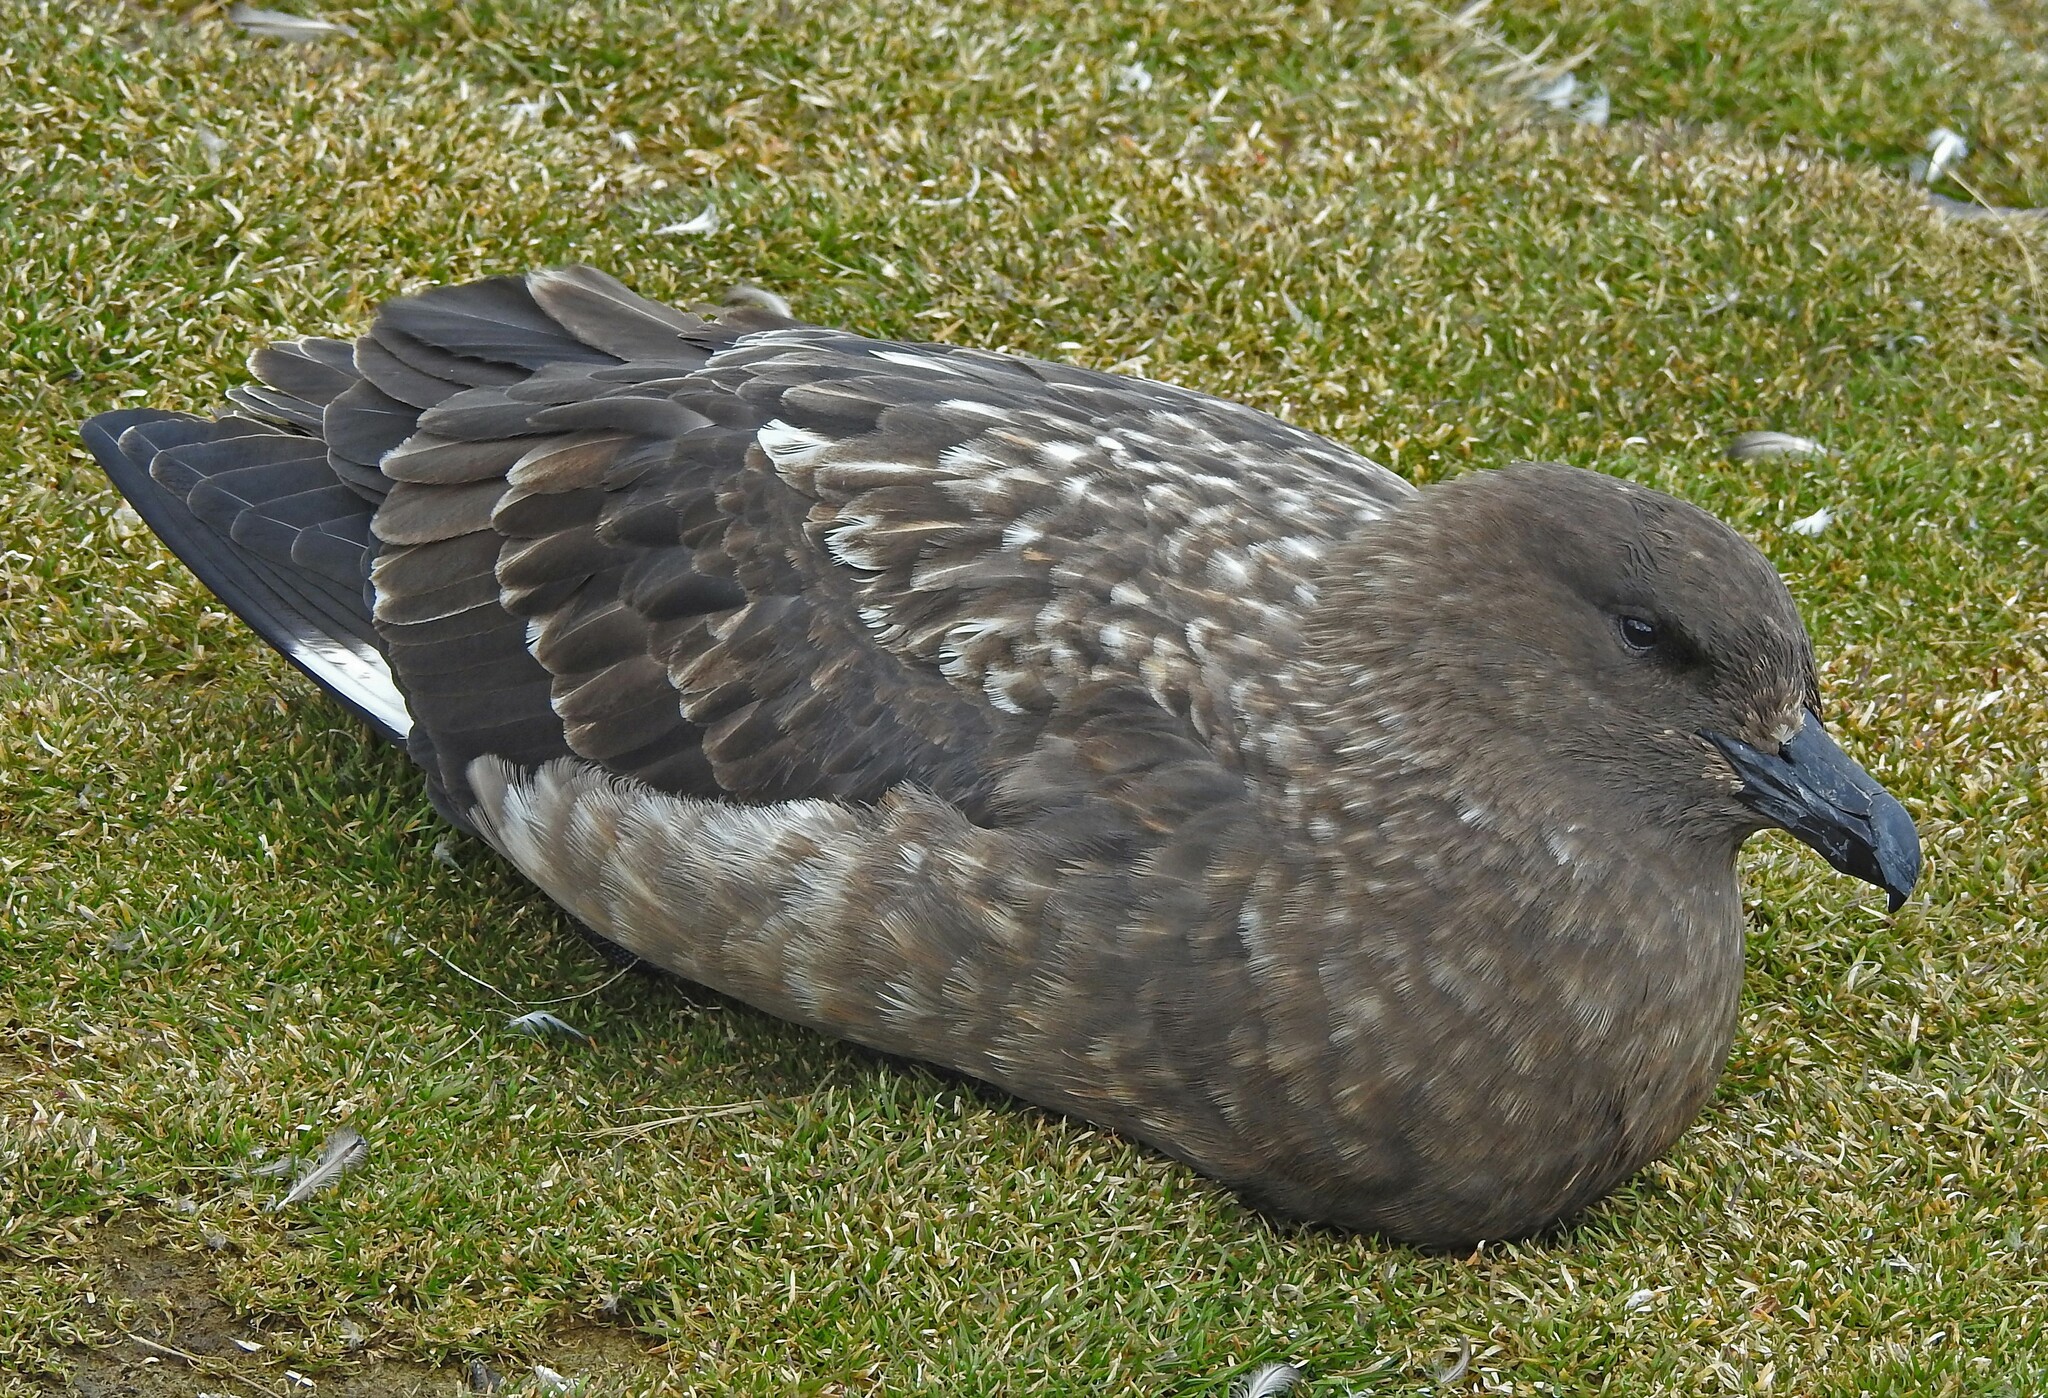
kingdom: Animalia
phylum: Chordata
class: Aves
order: Charadriiformes
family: Stercorariidae
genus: Stercorarius
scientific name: Stercorarius antarcticus
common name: Brown skua
